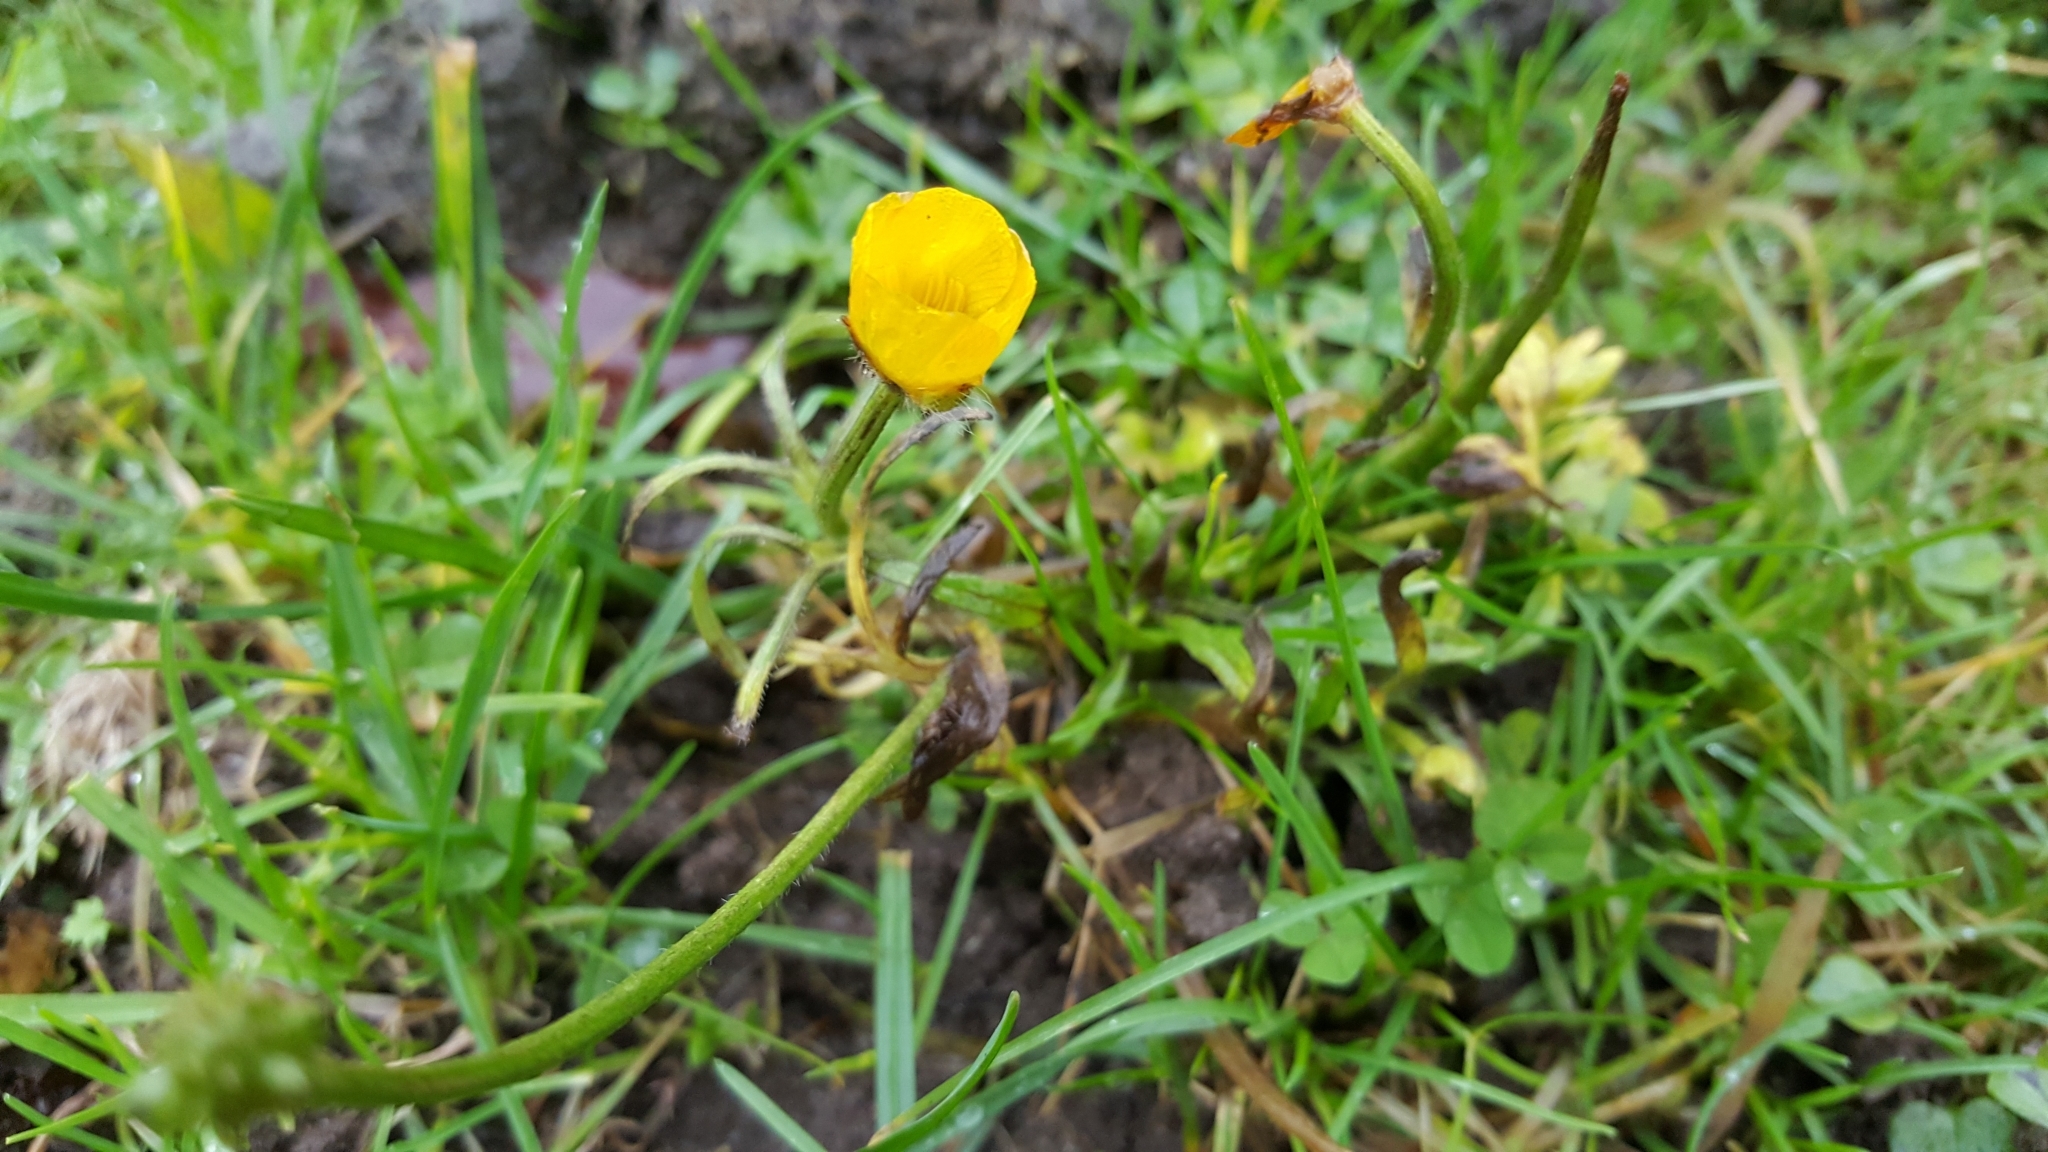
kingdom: Plantae
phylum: Tracheophyta
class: Magnoliopsida
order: Ranunculales
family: Ranunculaceae
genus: Ranunculus
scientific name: Ranunculus acris
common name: Meadow buttercup
